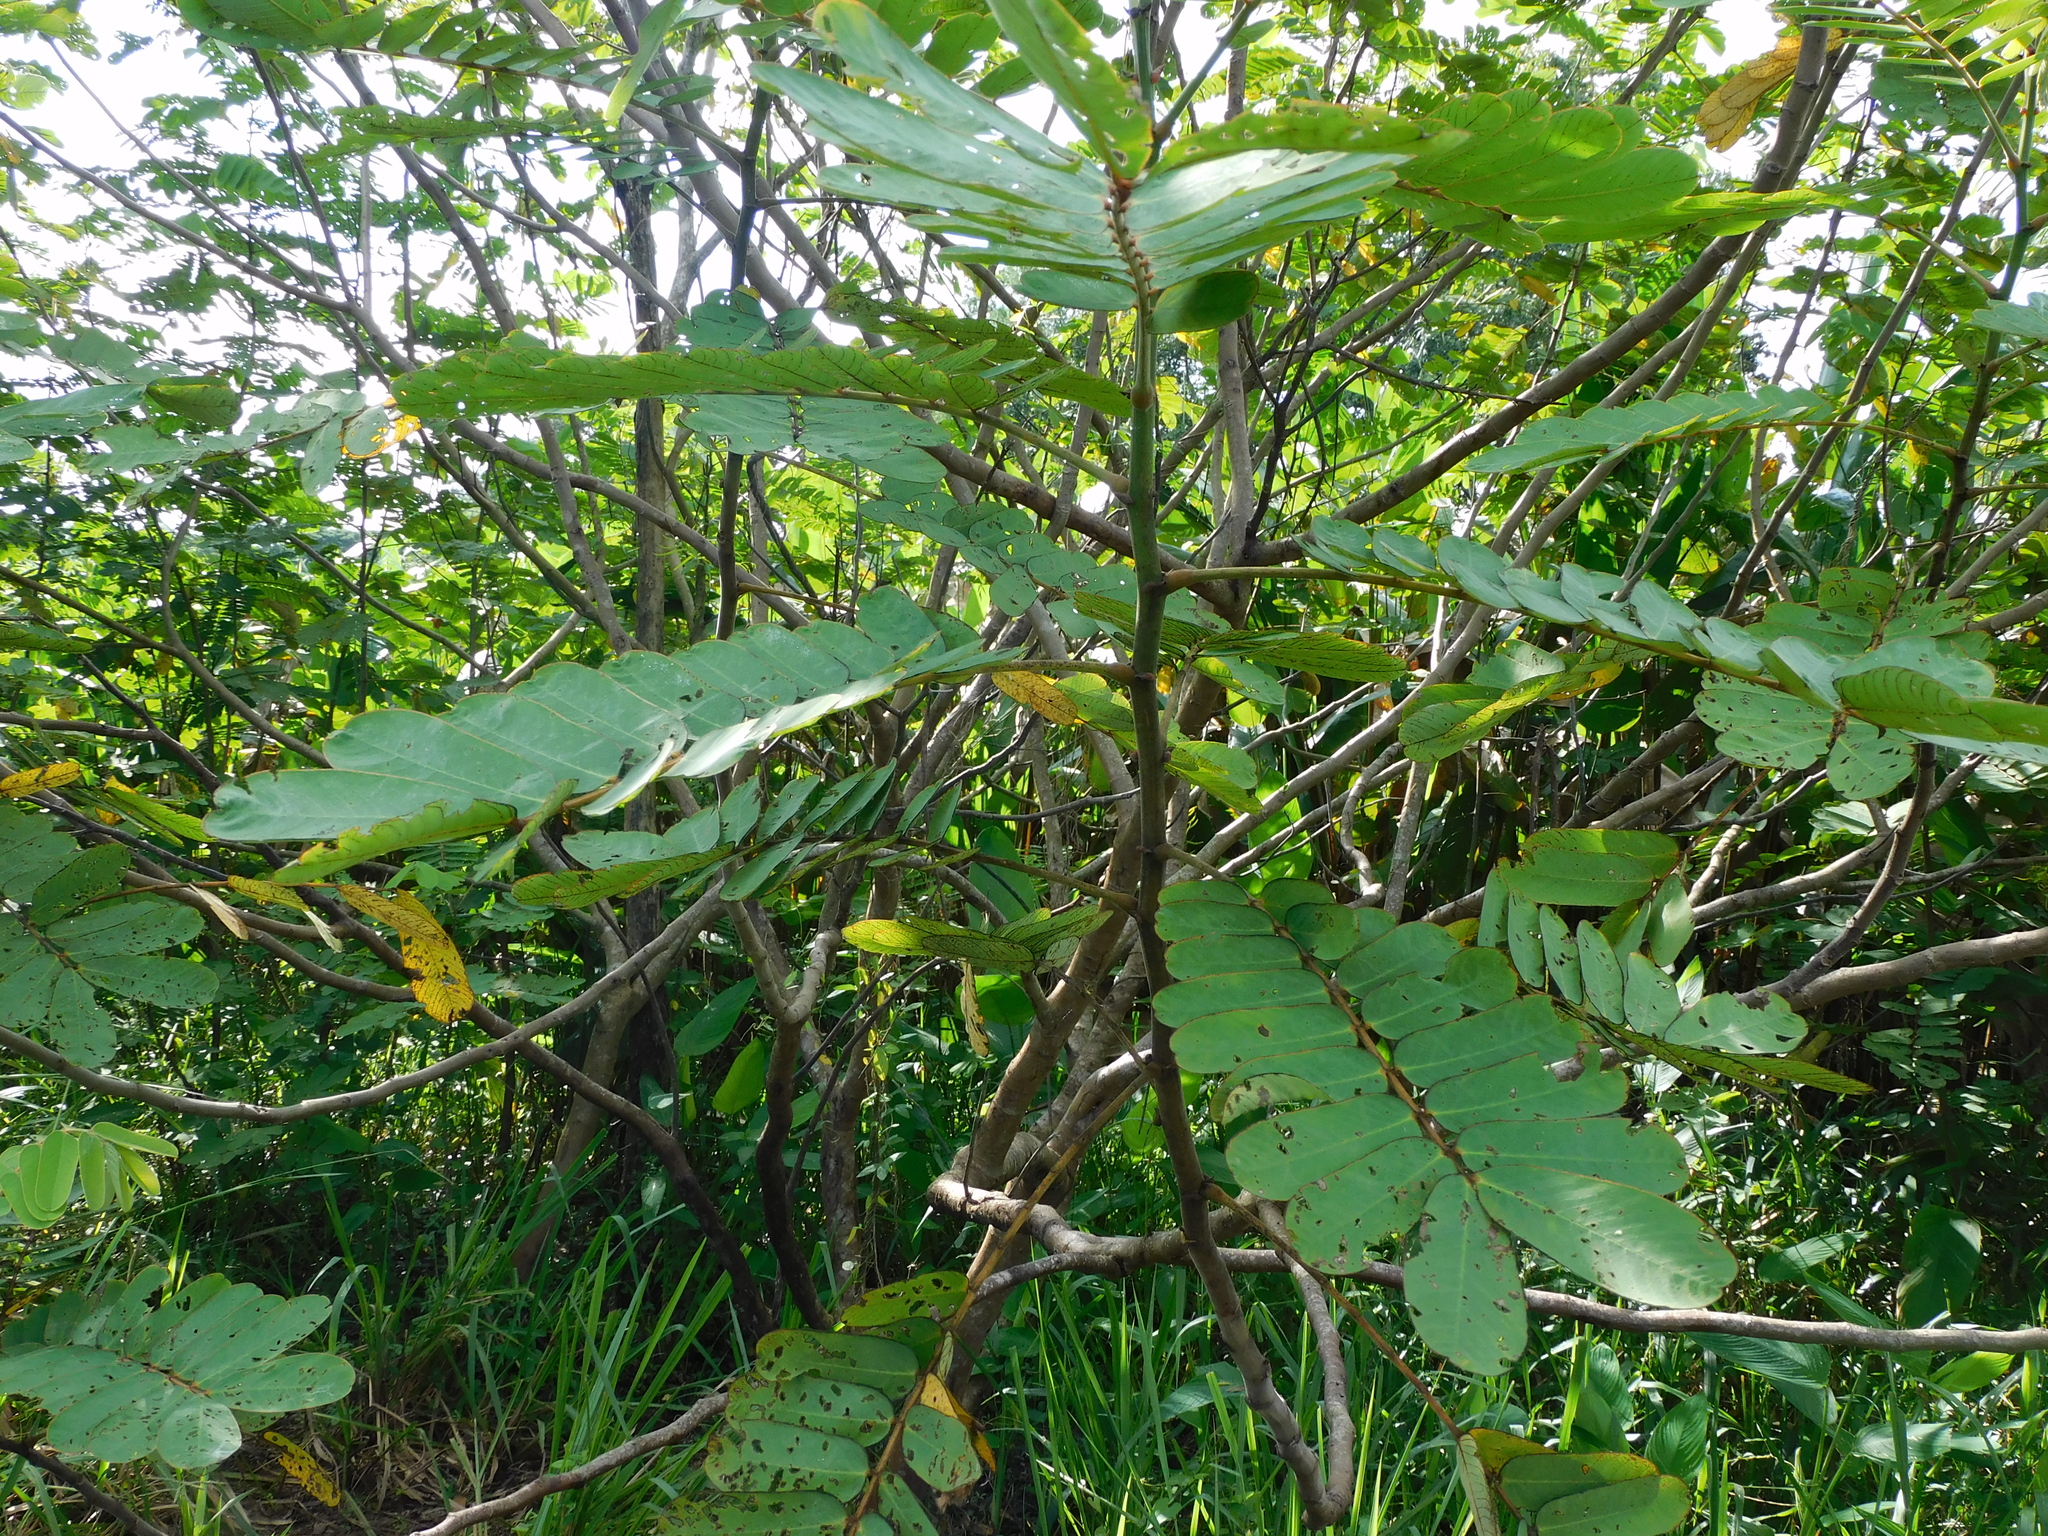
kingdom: Plantae
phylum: Tracheophyta
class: Magnoliopsida
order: Fabales
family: Fabaceae
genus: Senna
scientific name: Senna reticulata
